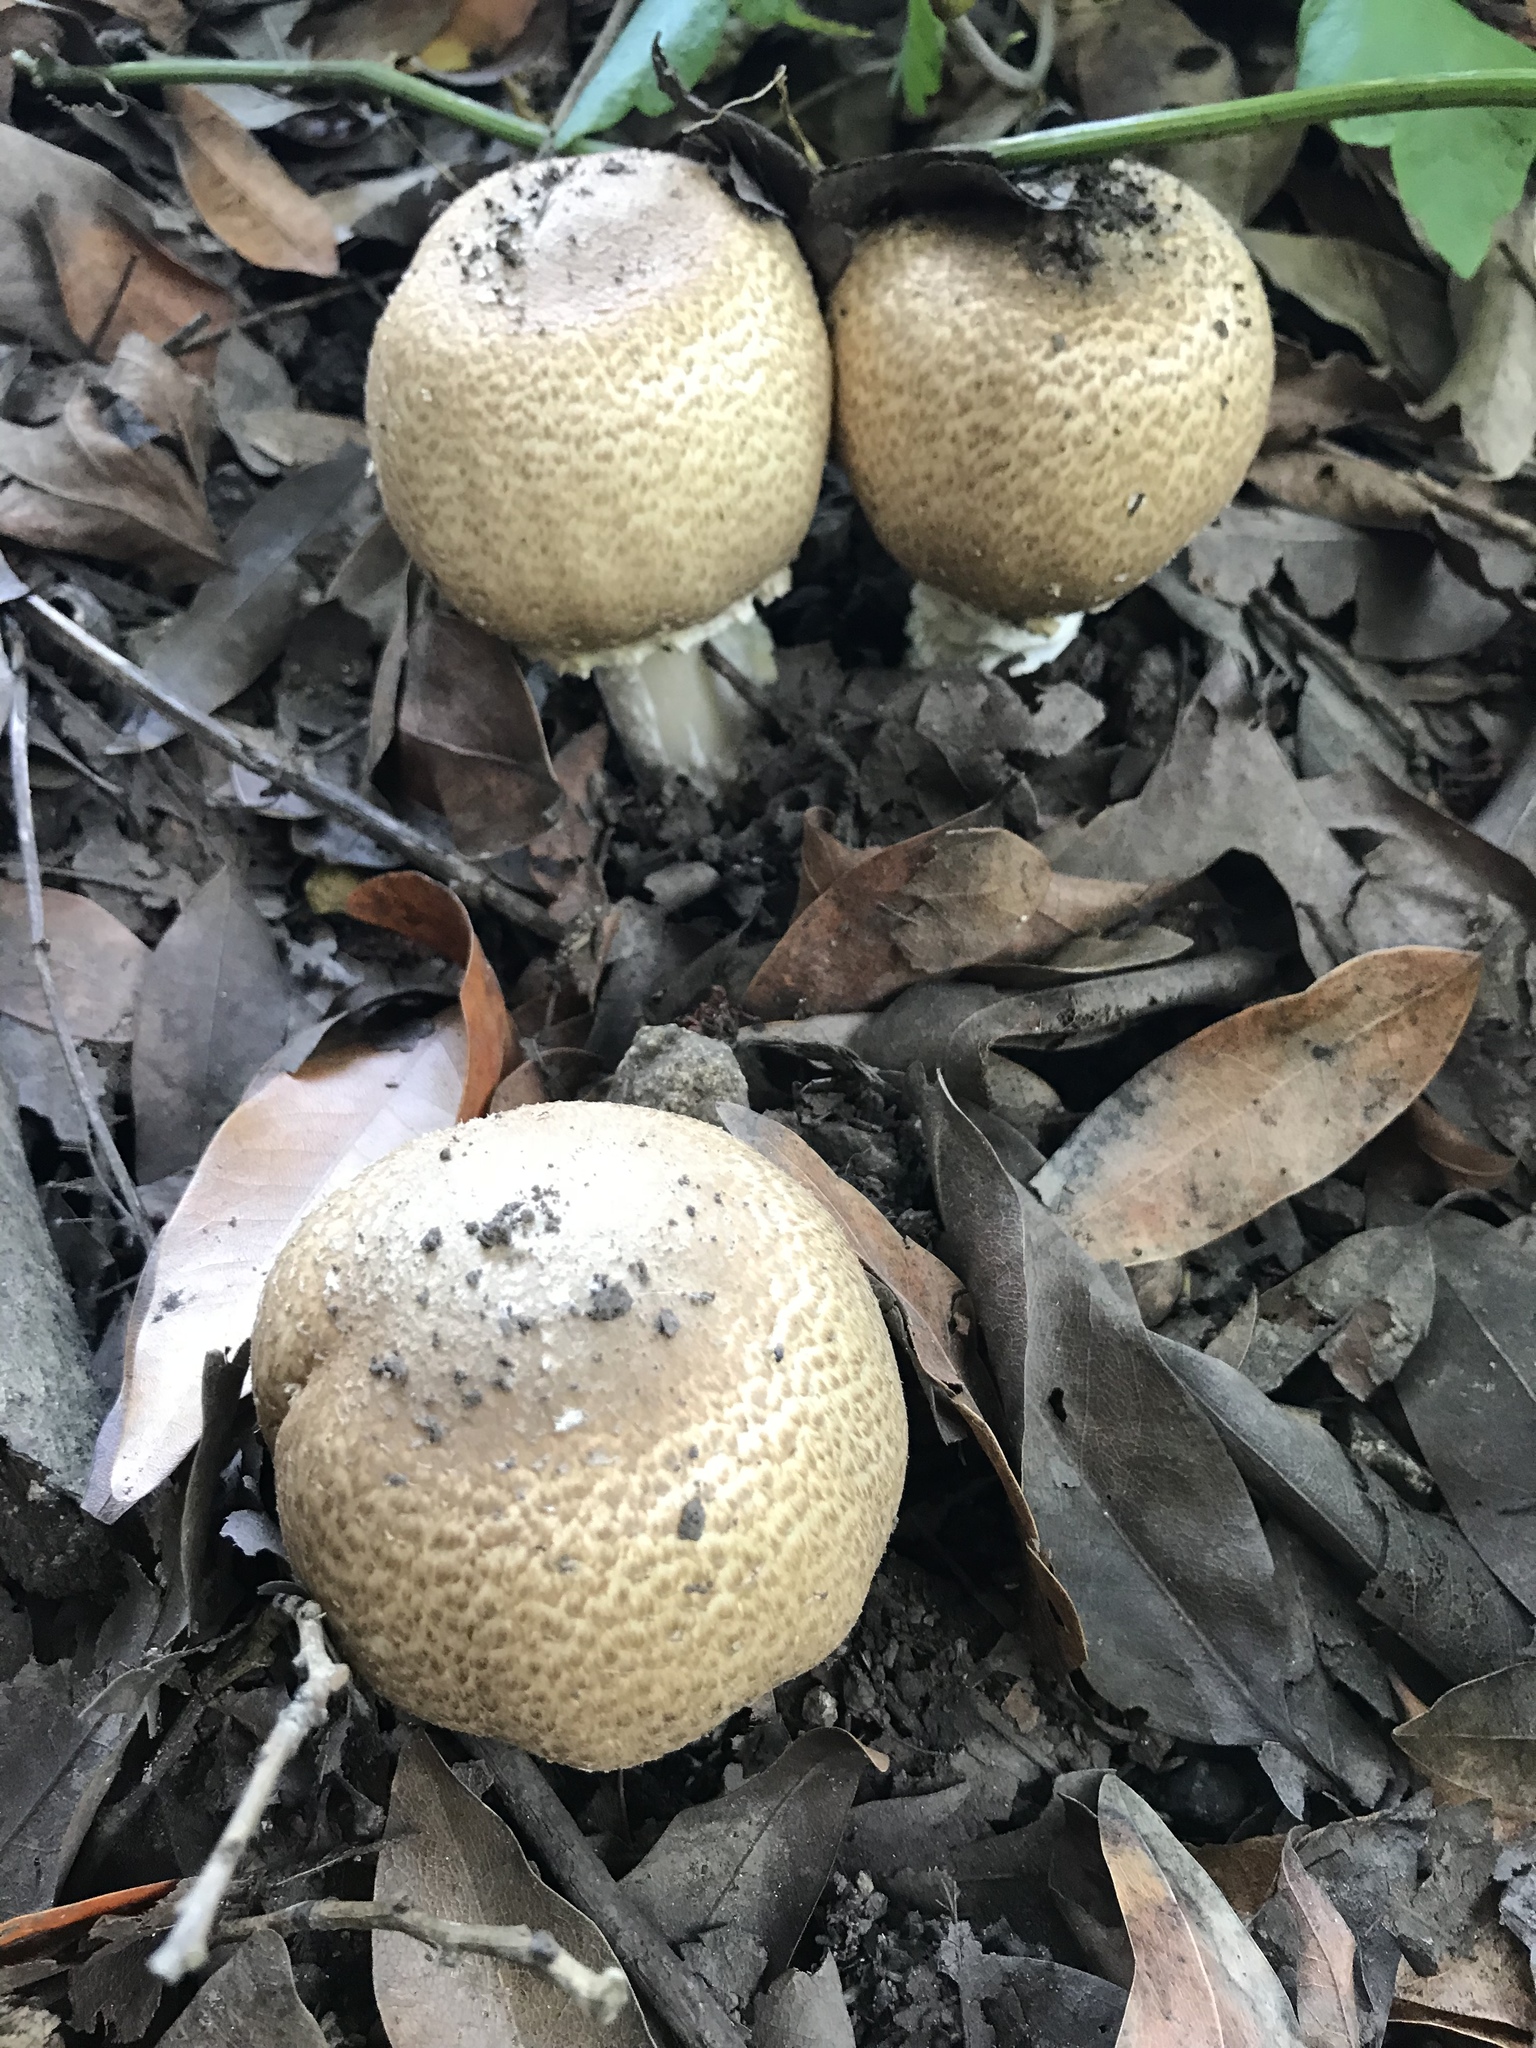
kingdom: Fungi
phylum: Basidiomycota
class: Agaricomycetes
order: Agaricales
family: Agaricaceae
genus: Agaricus
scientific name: Agaricus augustus
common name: Prince
